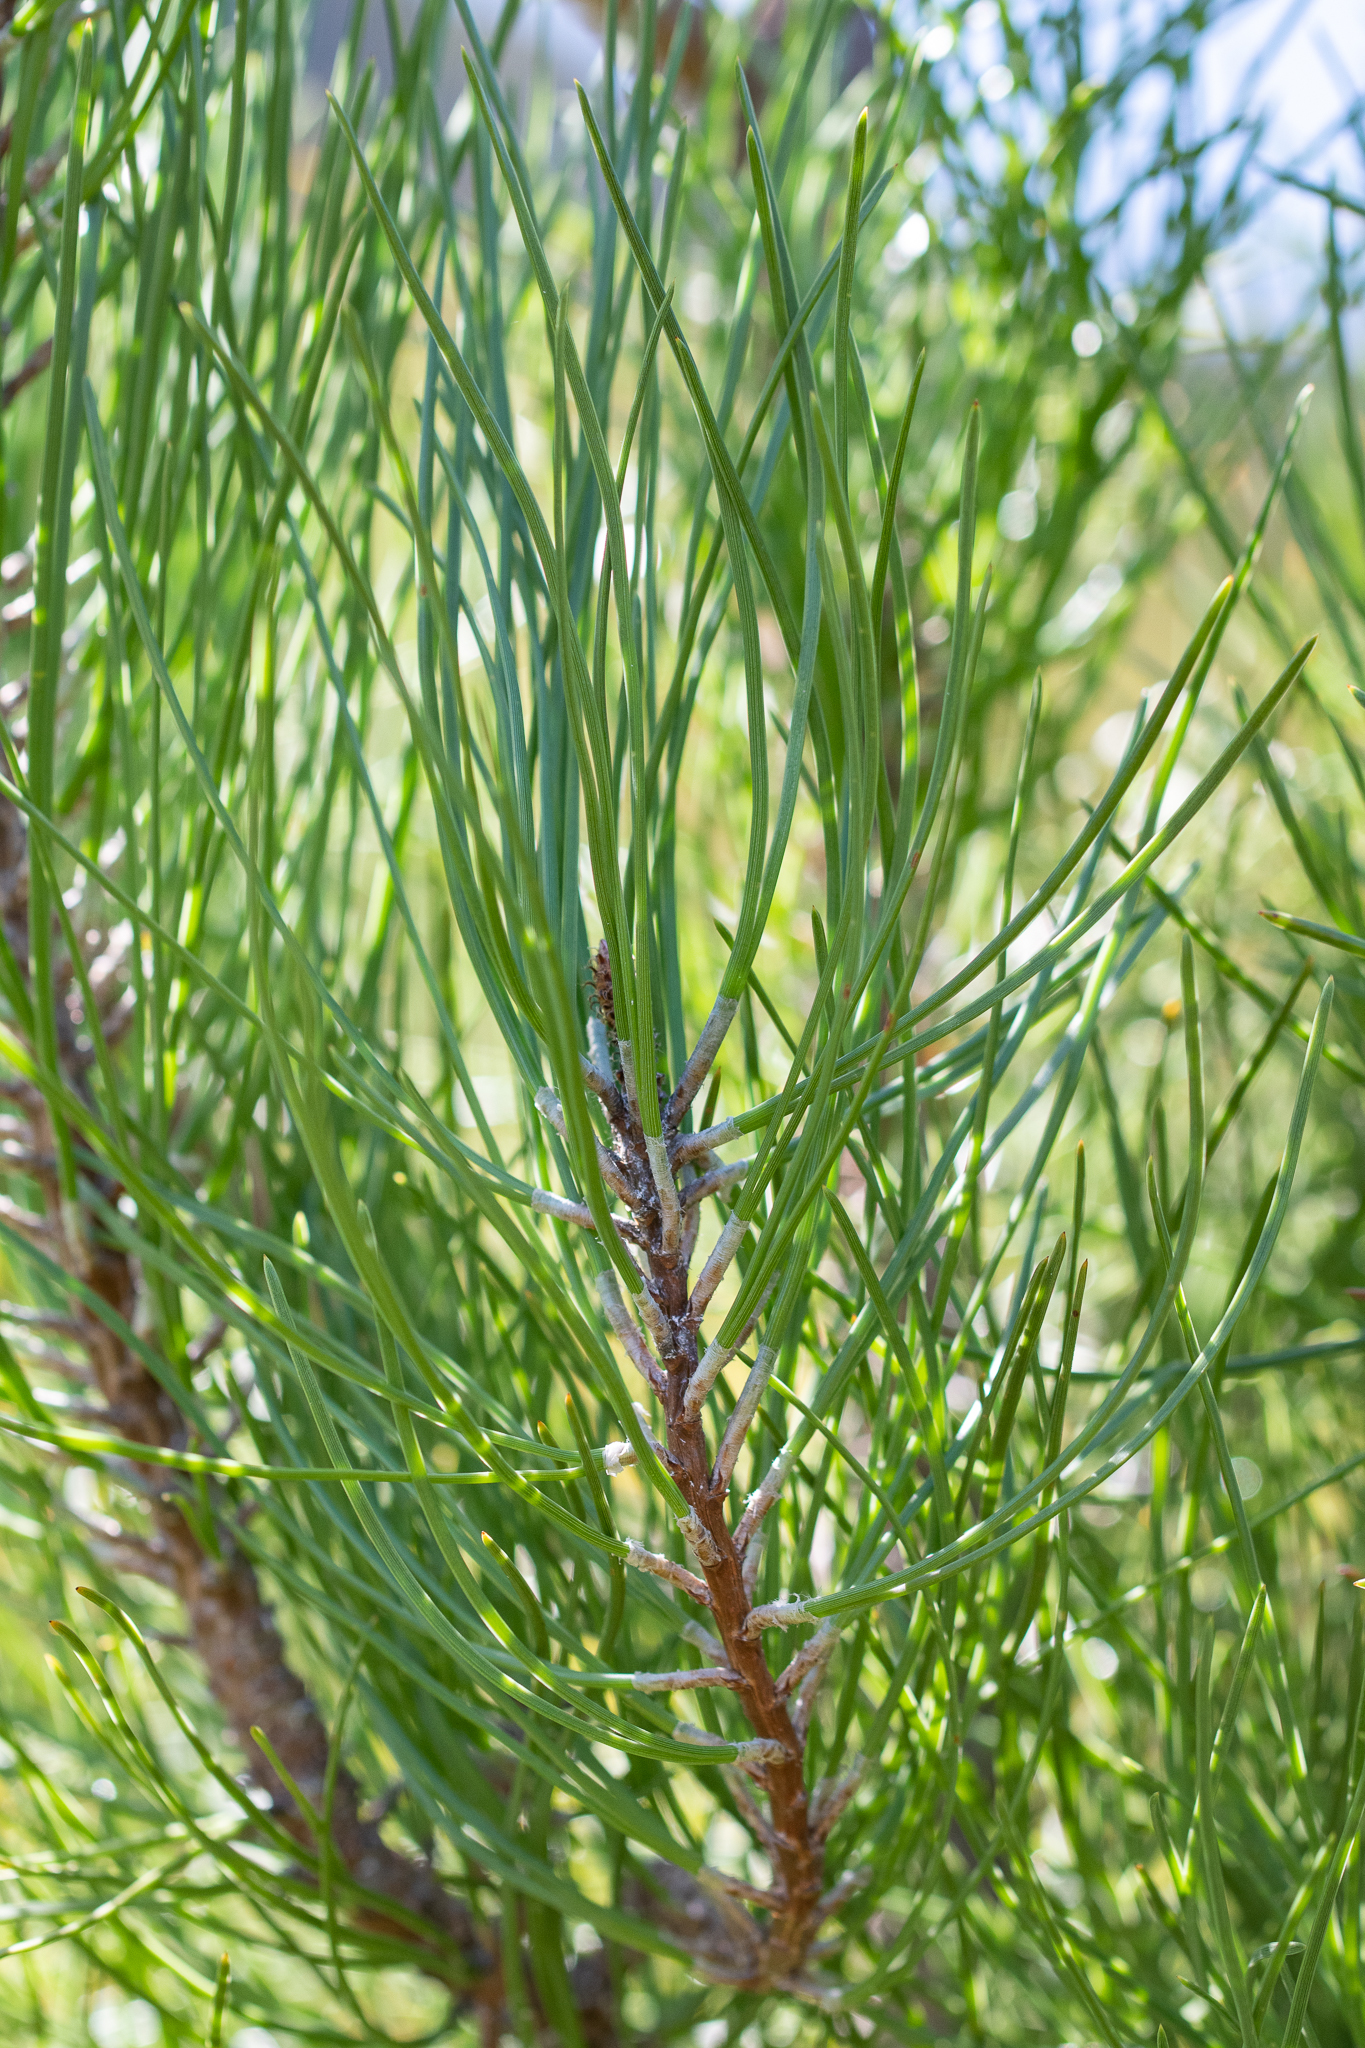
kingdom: Plantae
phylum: Tracheophyta
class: Pinopsida
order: Pinales
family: Pinaceae
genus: Pinus
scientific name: Pinus pinaster
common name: Maritime pine
